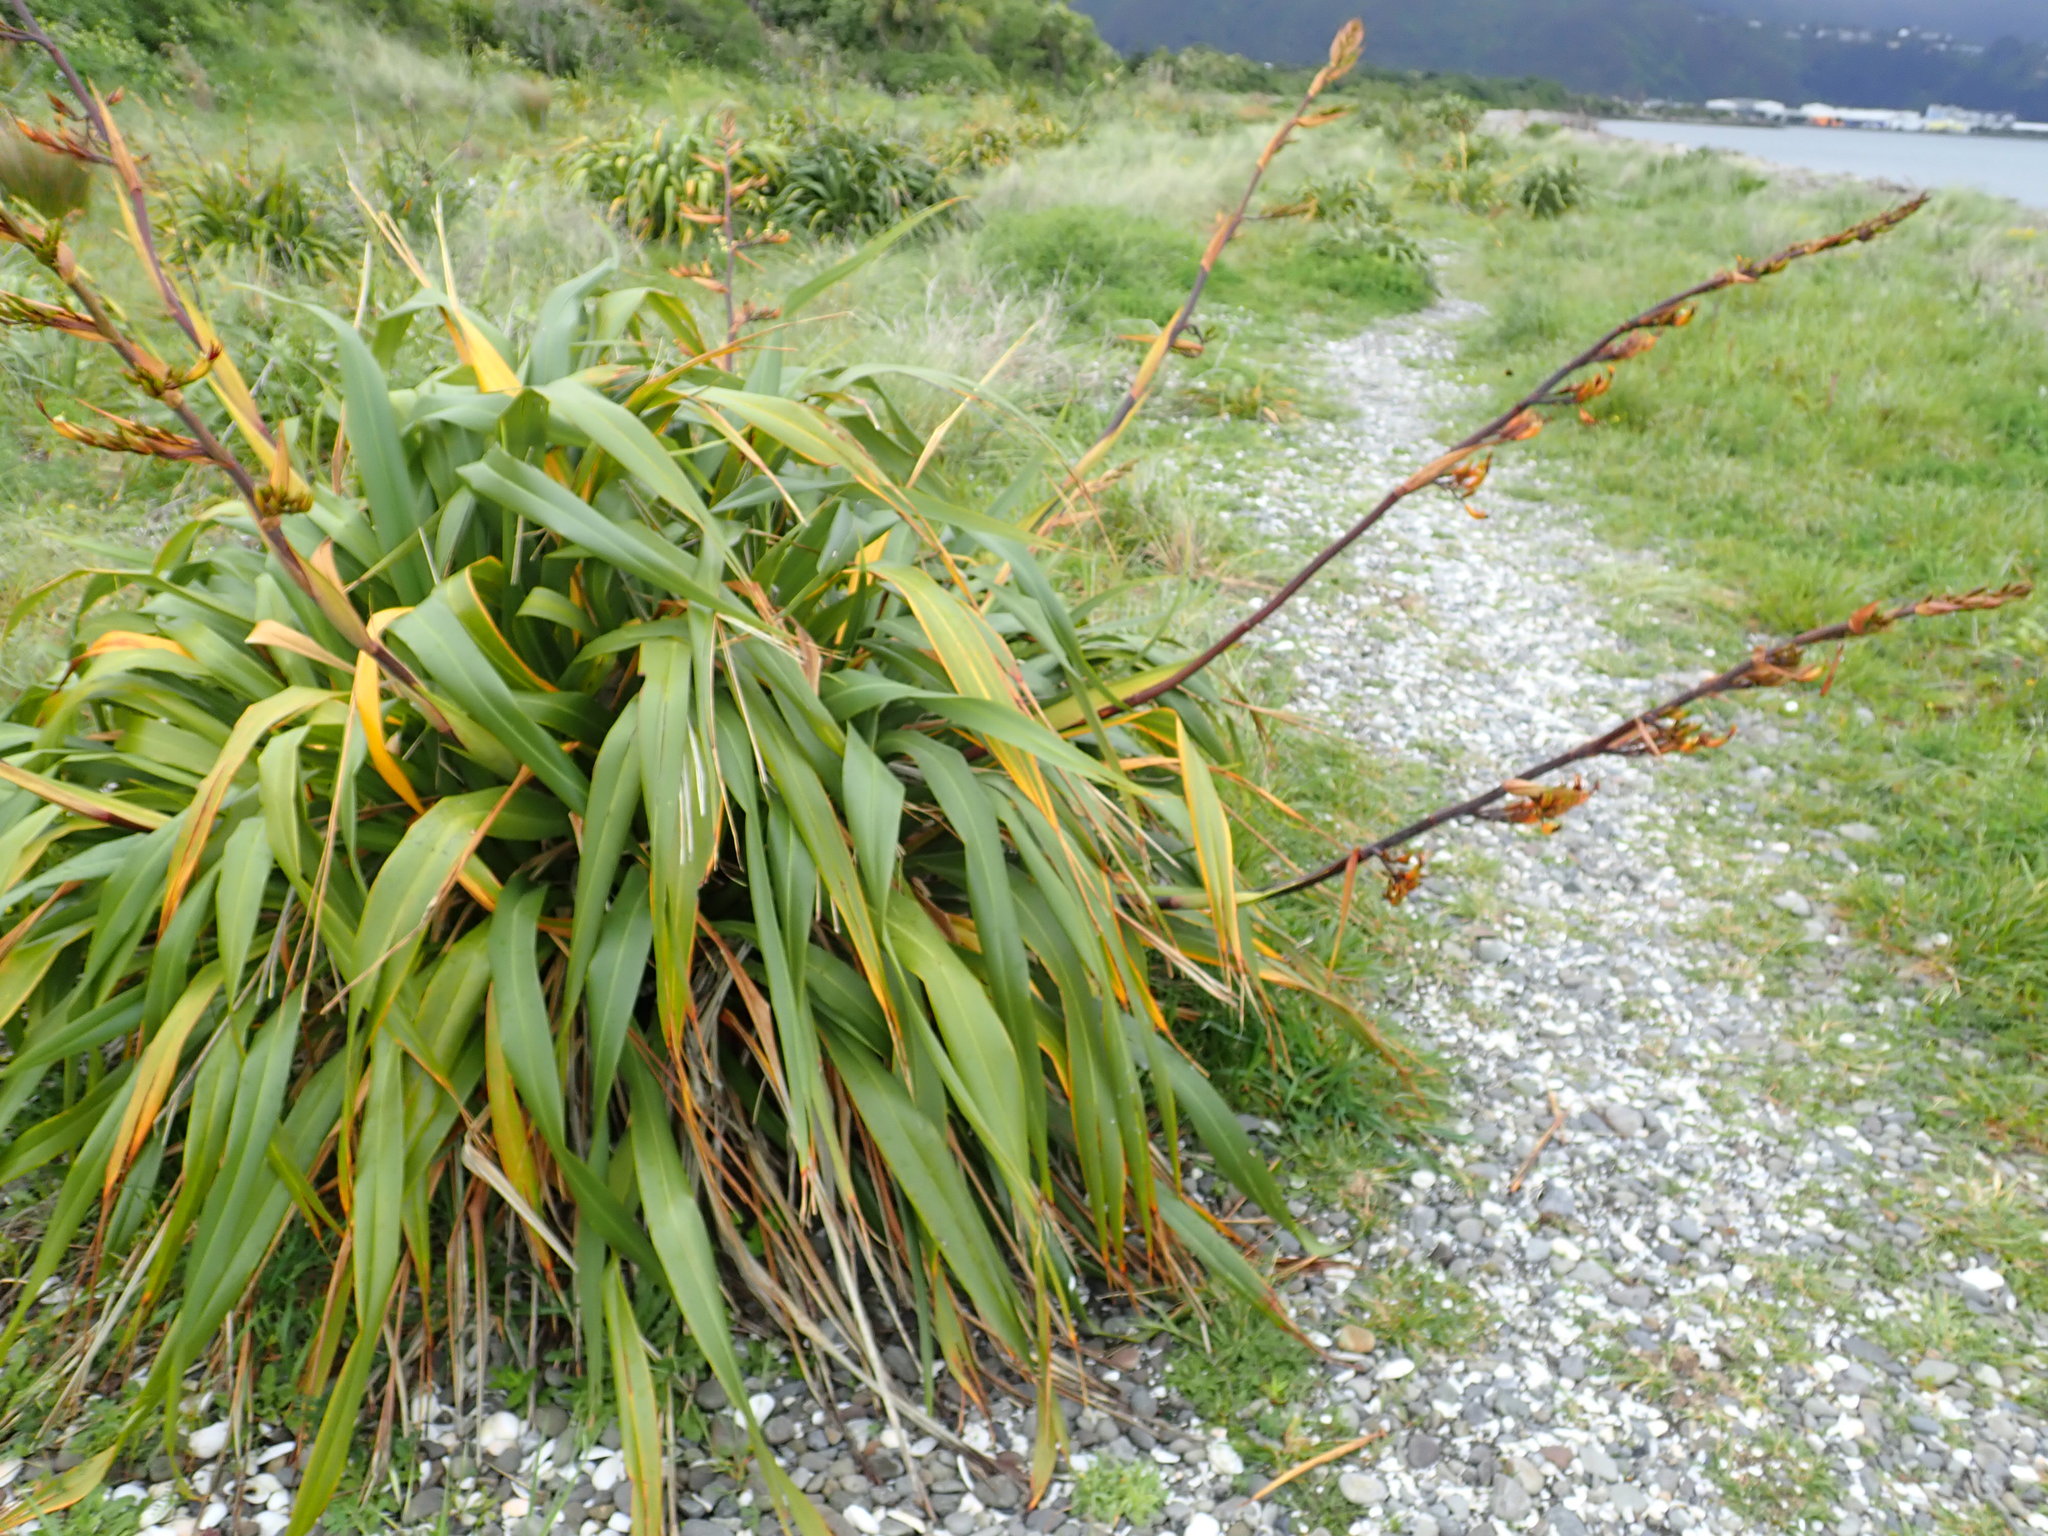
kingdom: Plantae
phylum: Tracheophyta
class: Liliopsida
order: Asparagales
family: Asphodelaceae
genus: Phormium
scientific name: Phormium colensoi
